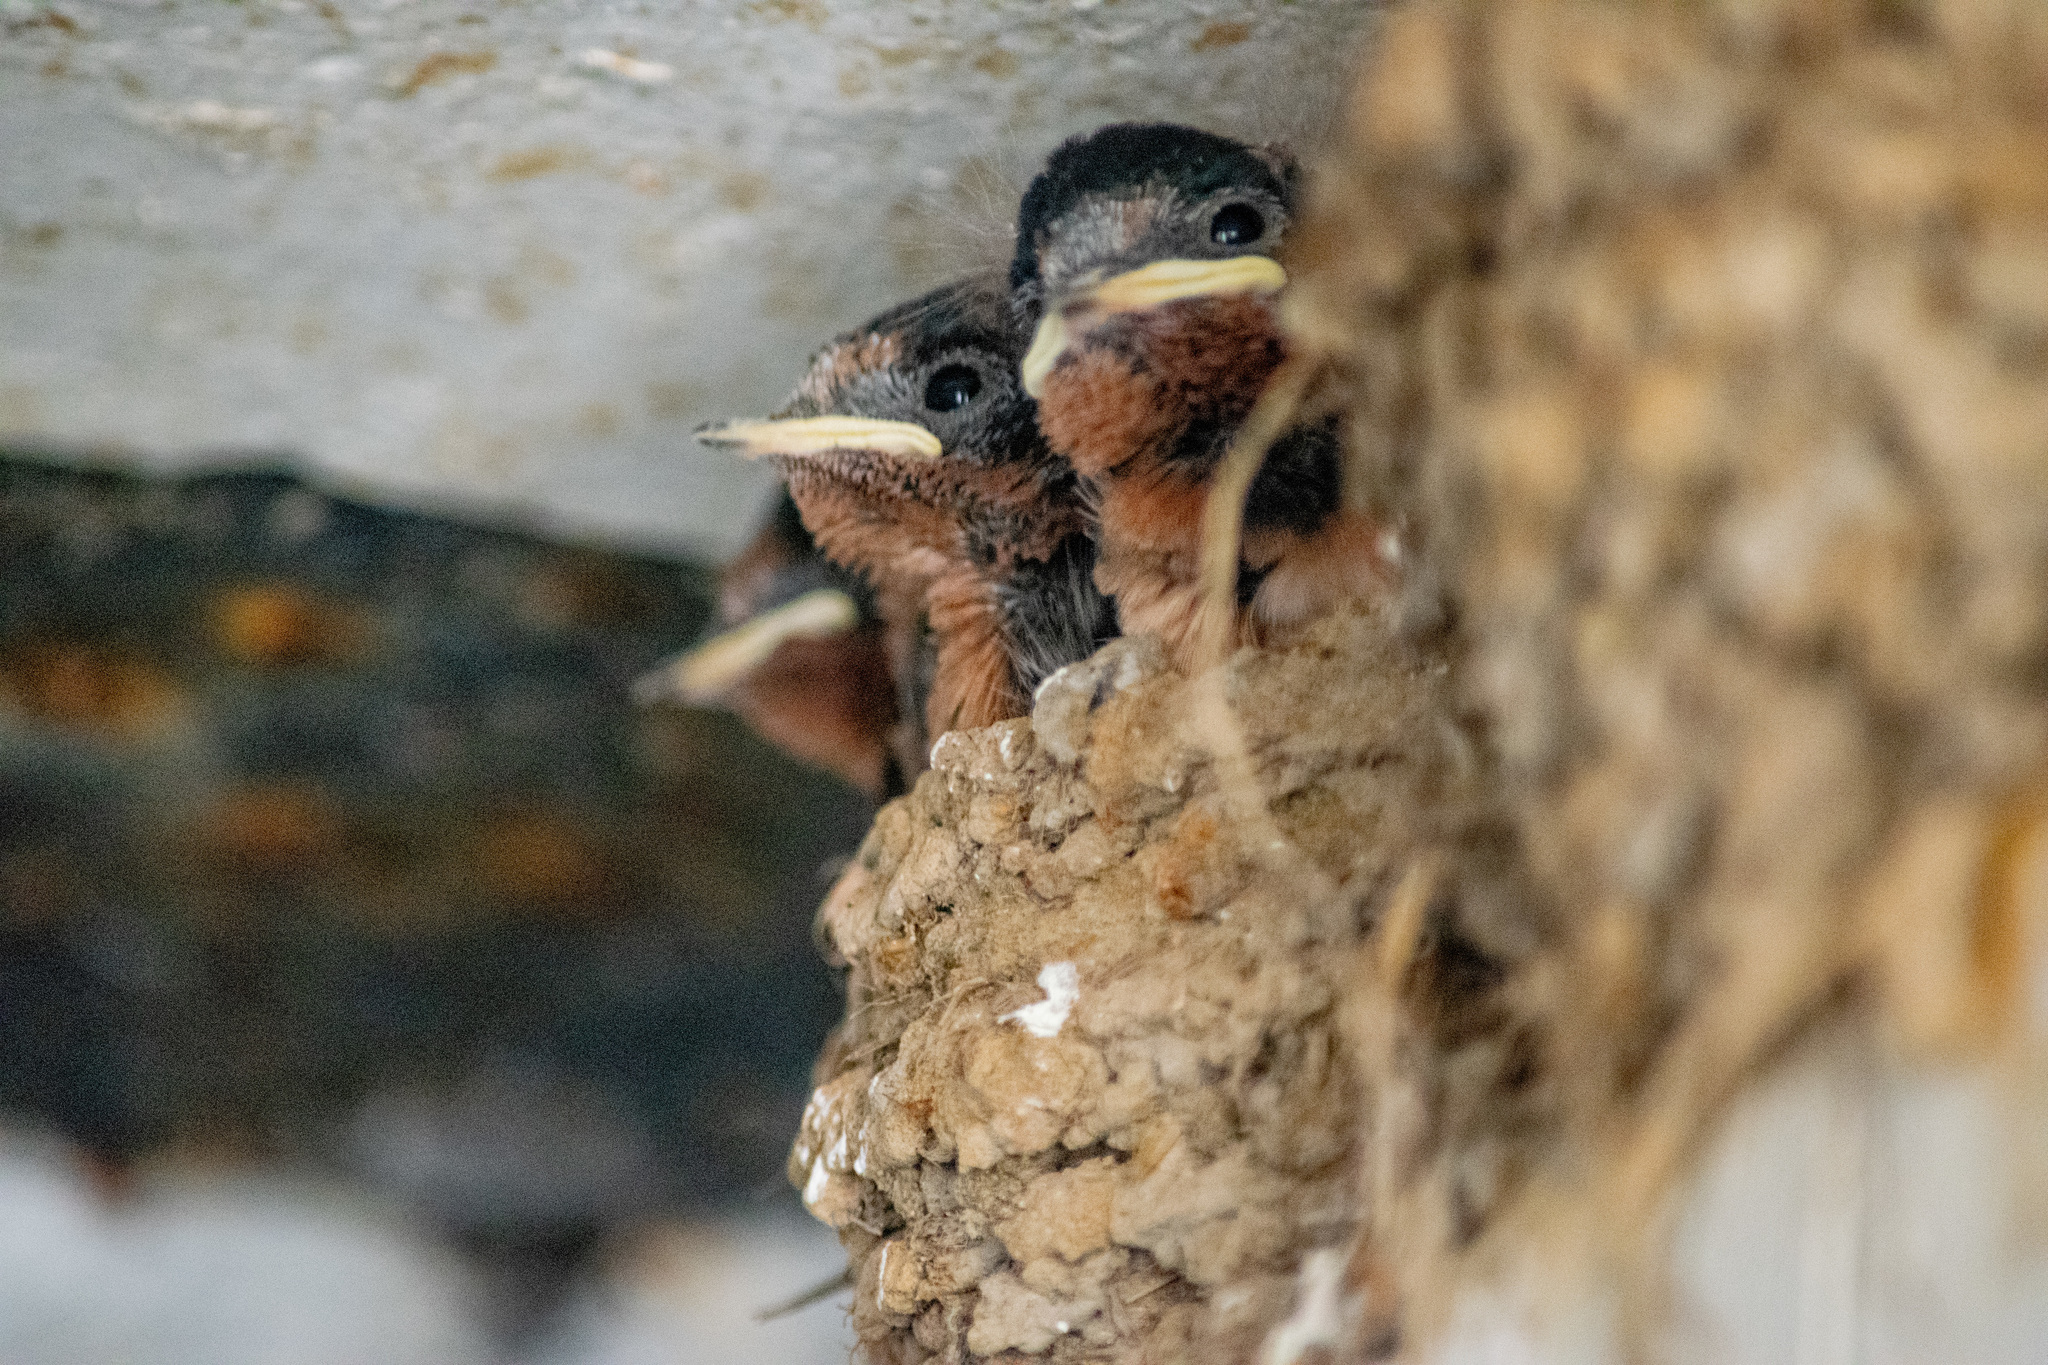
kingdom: Animalia
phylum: Chordata
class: Aves
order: Passeriformes
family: Hirundinidae
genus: Hirundo
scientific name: Hirundo rustica
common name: Barn swallow
